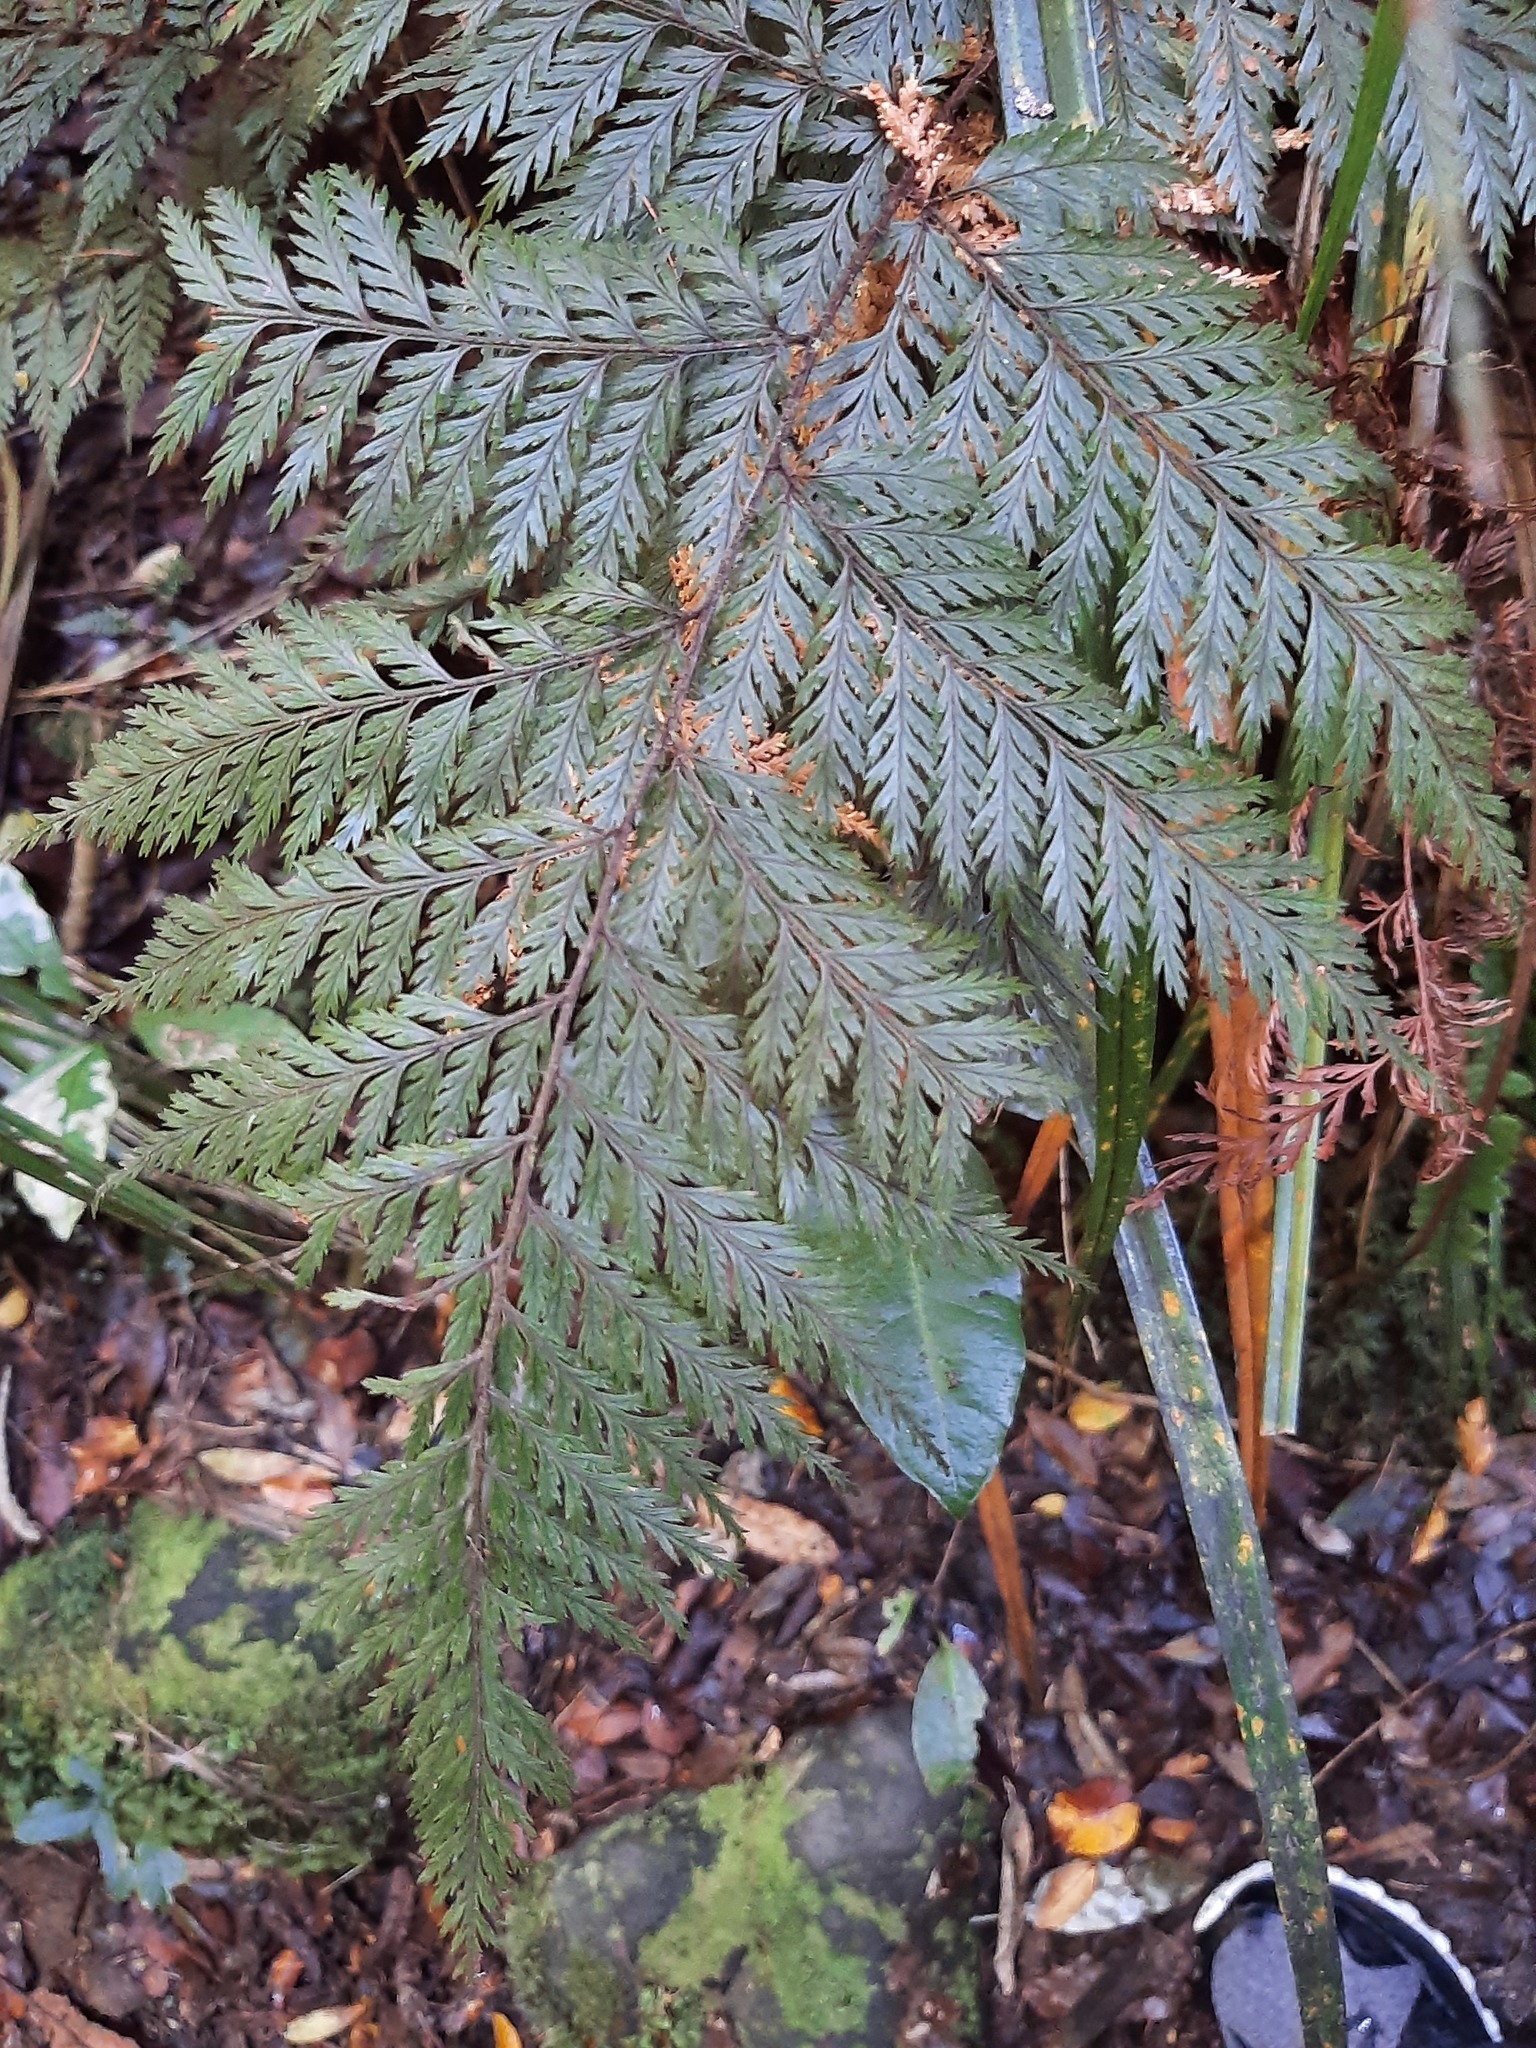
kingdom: Plantae
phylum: Tracheophyta
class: Polypodiopsida
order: Hymenophyllales
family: Hymenophyllaceae
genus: Hymenophyllum
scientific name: Hymenophyllum dilatatum
